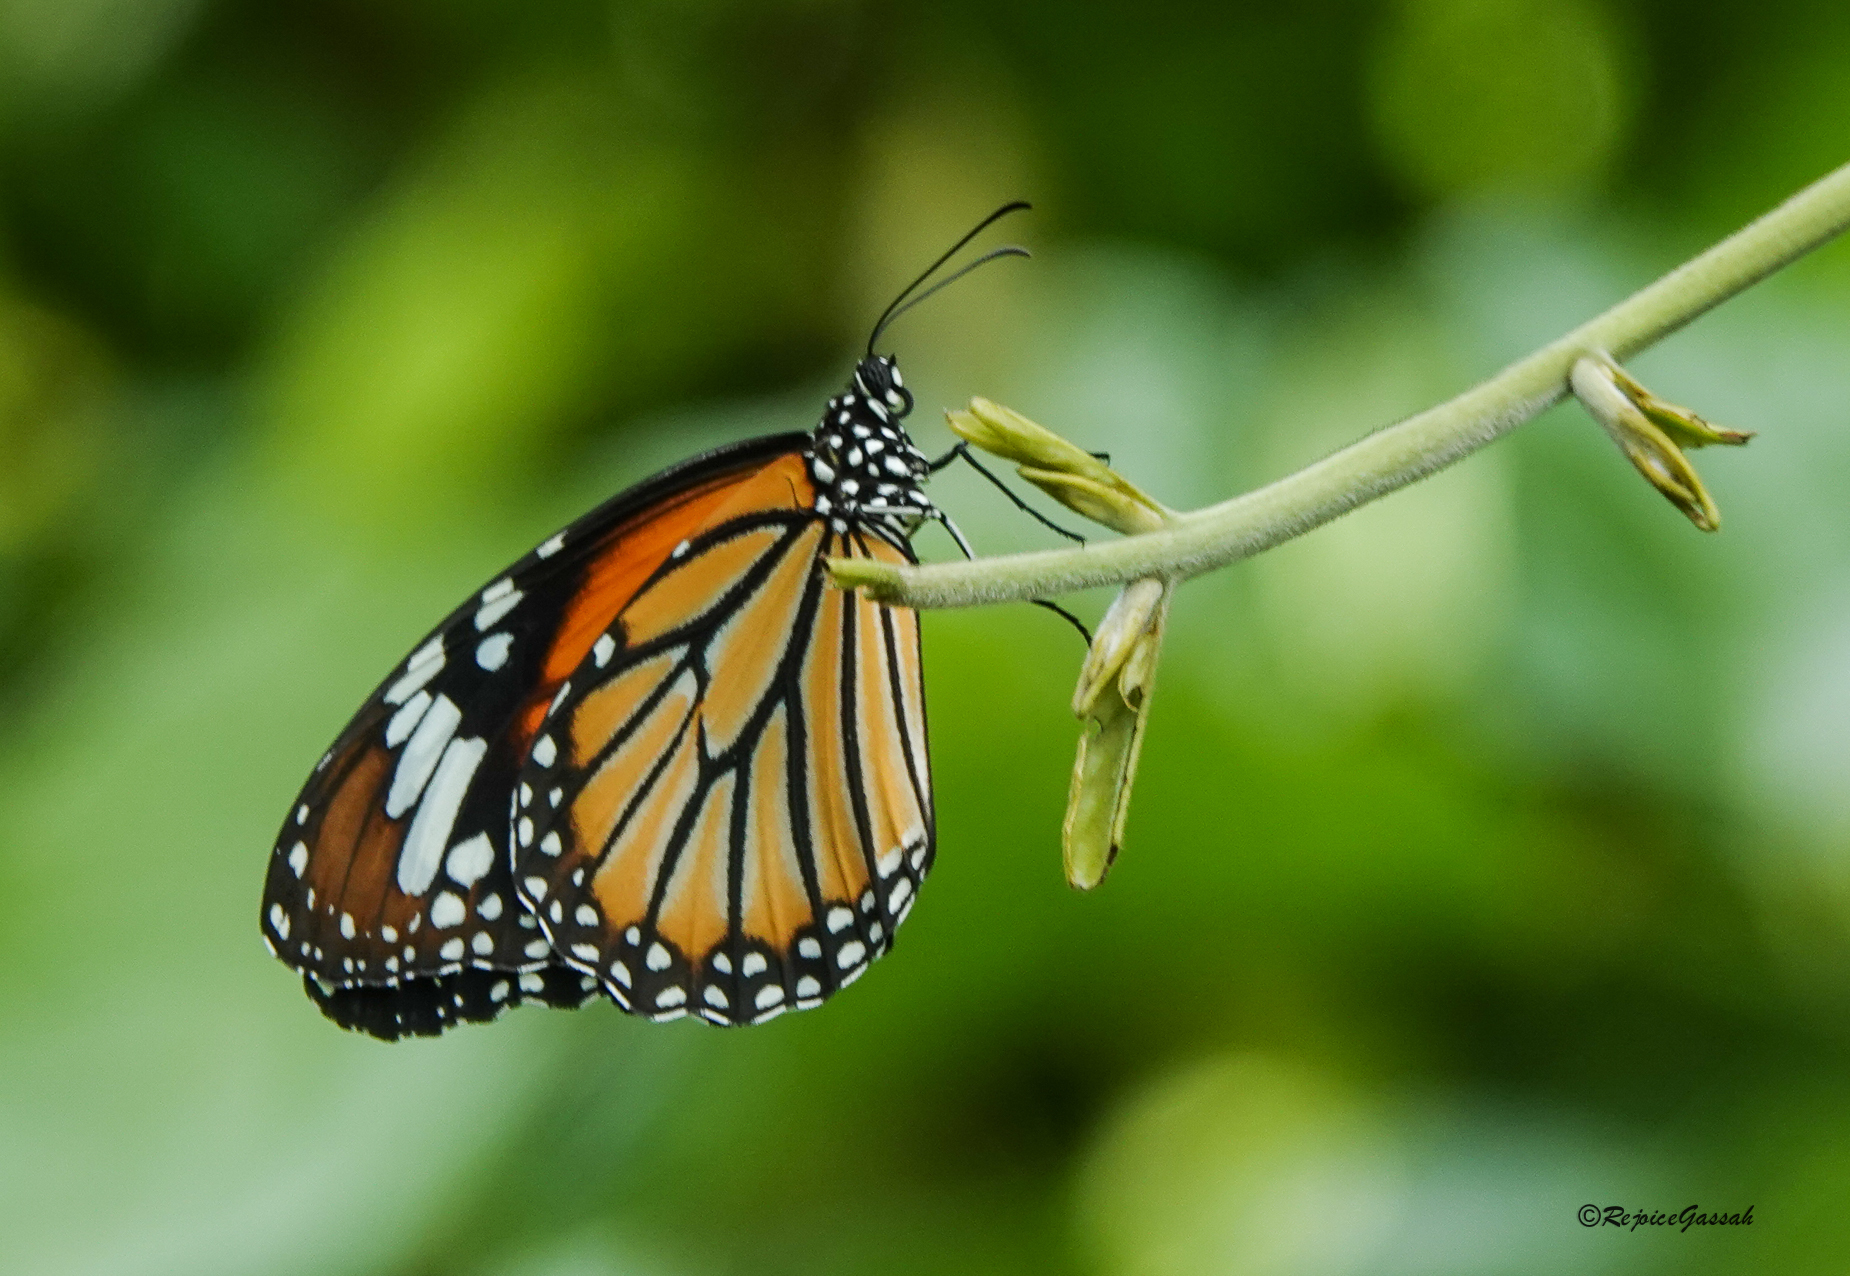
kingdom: Animalia
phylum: Arthropoda
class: Insecta
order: Lepidoptera
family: Nymphalidae
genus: Danaus
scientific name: Danaus genutia
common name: Common tiger butterfly
